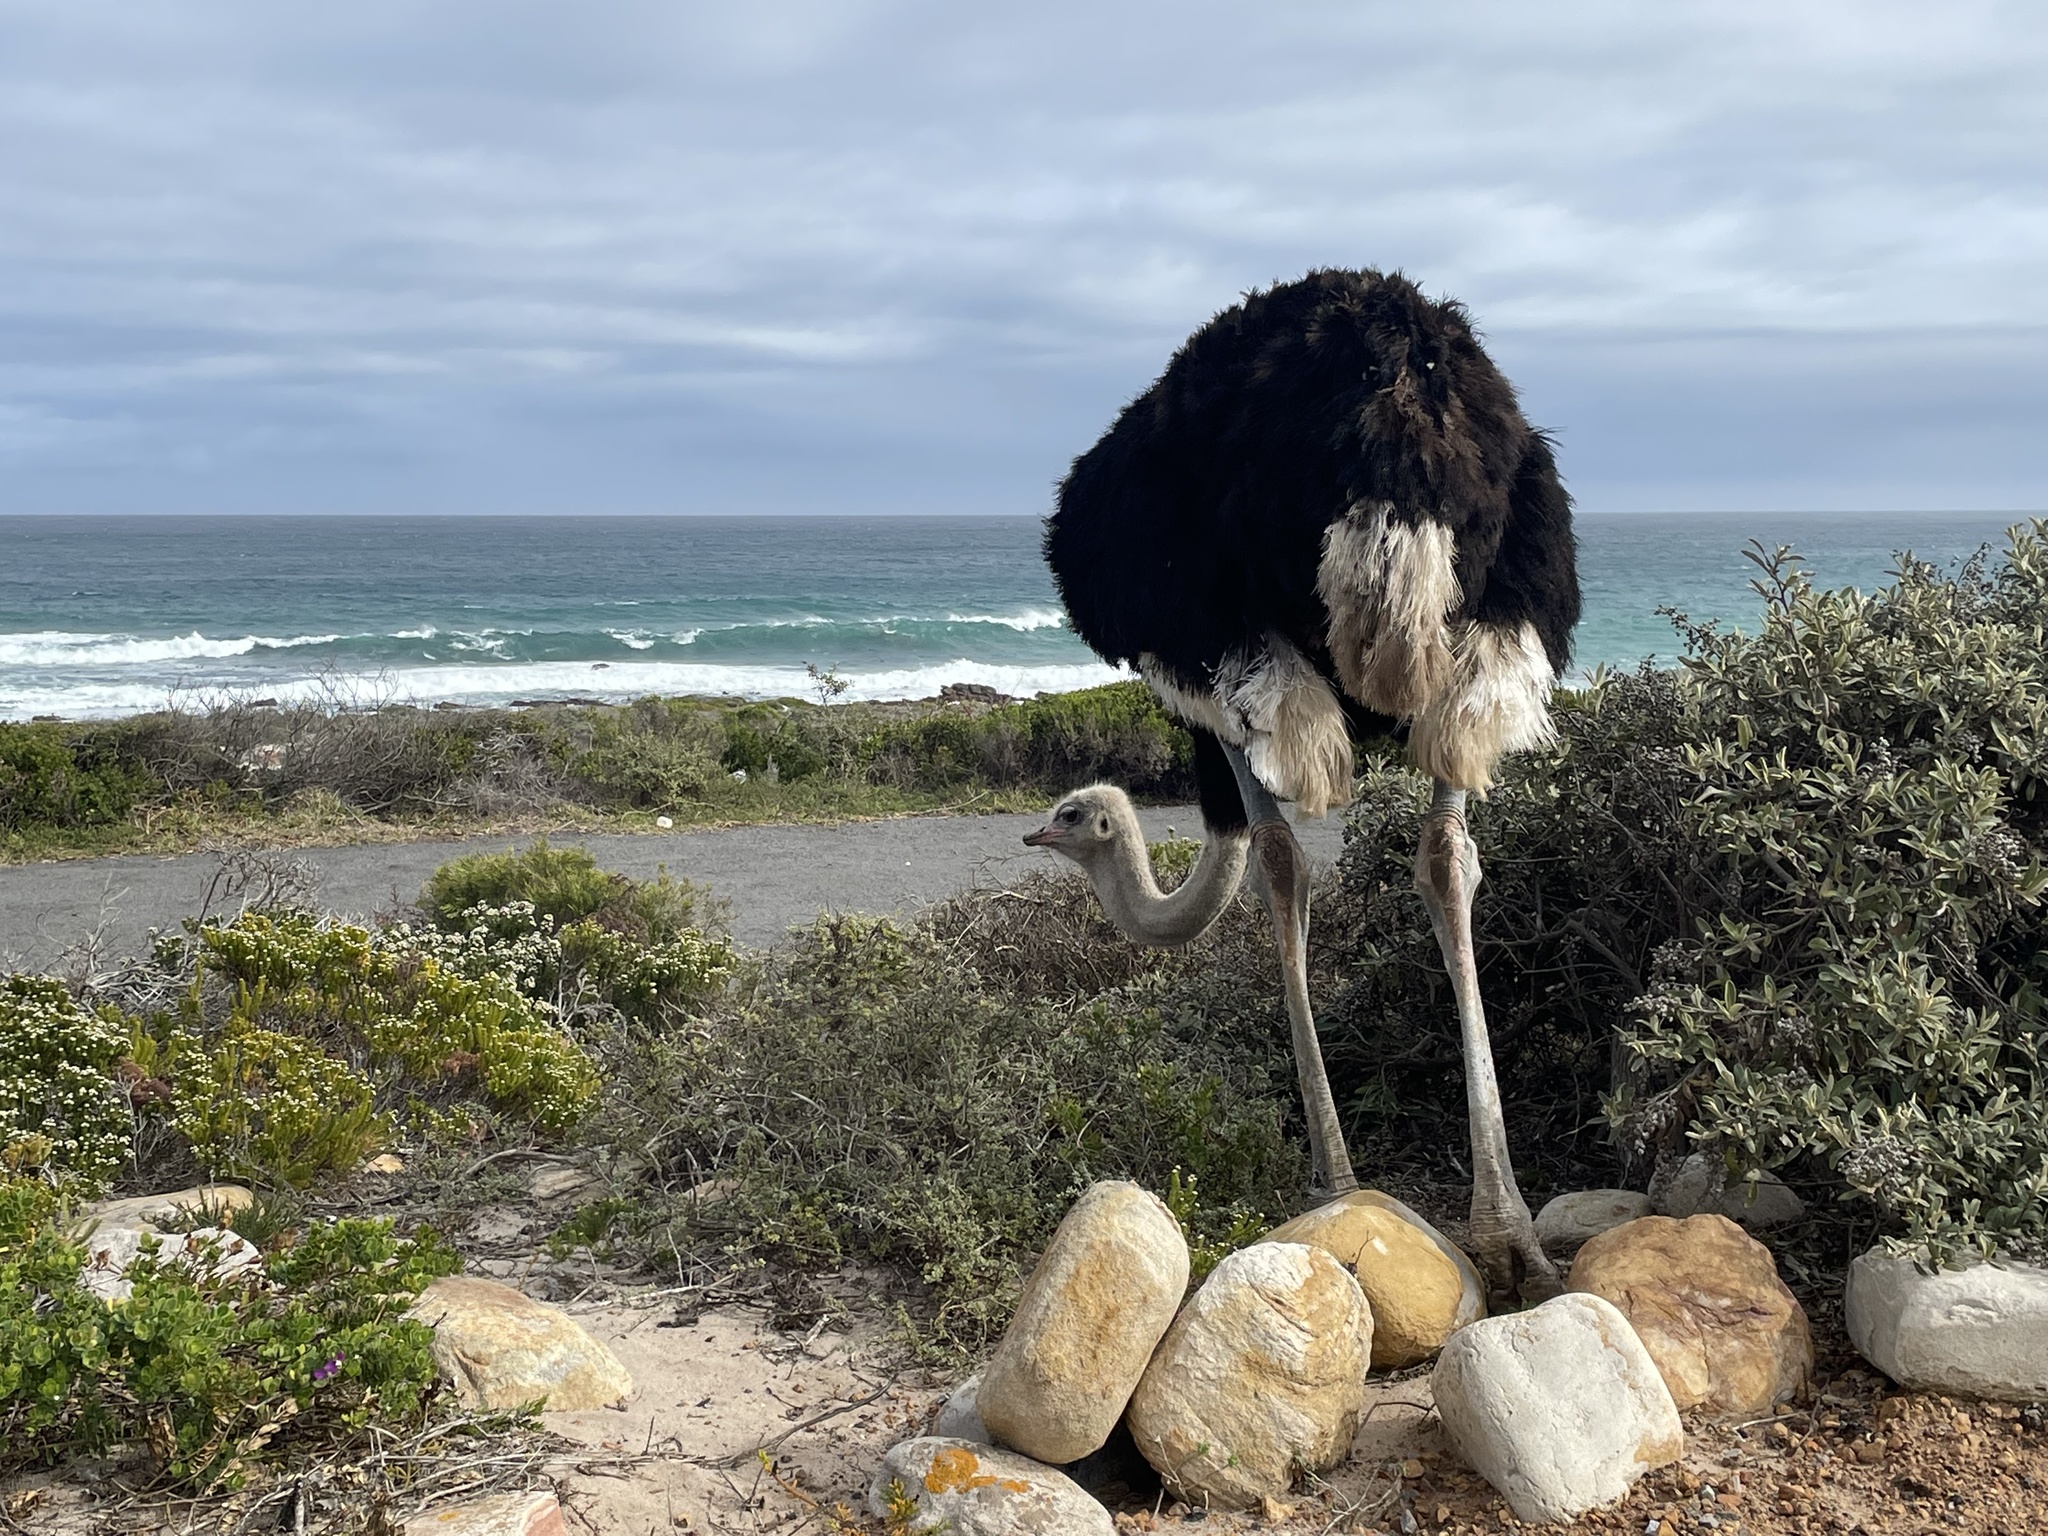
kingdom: Animalia
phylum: Chordata
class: Aves
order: Struthioniformes
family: Struthionidae
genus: Struthio
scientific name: Struthio camelus
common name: Common ostrich
